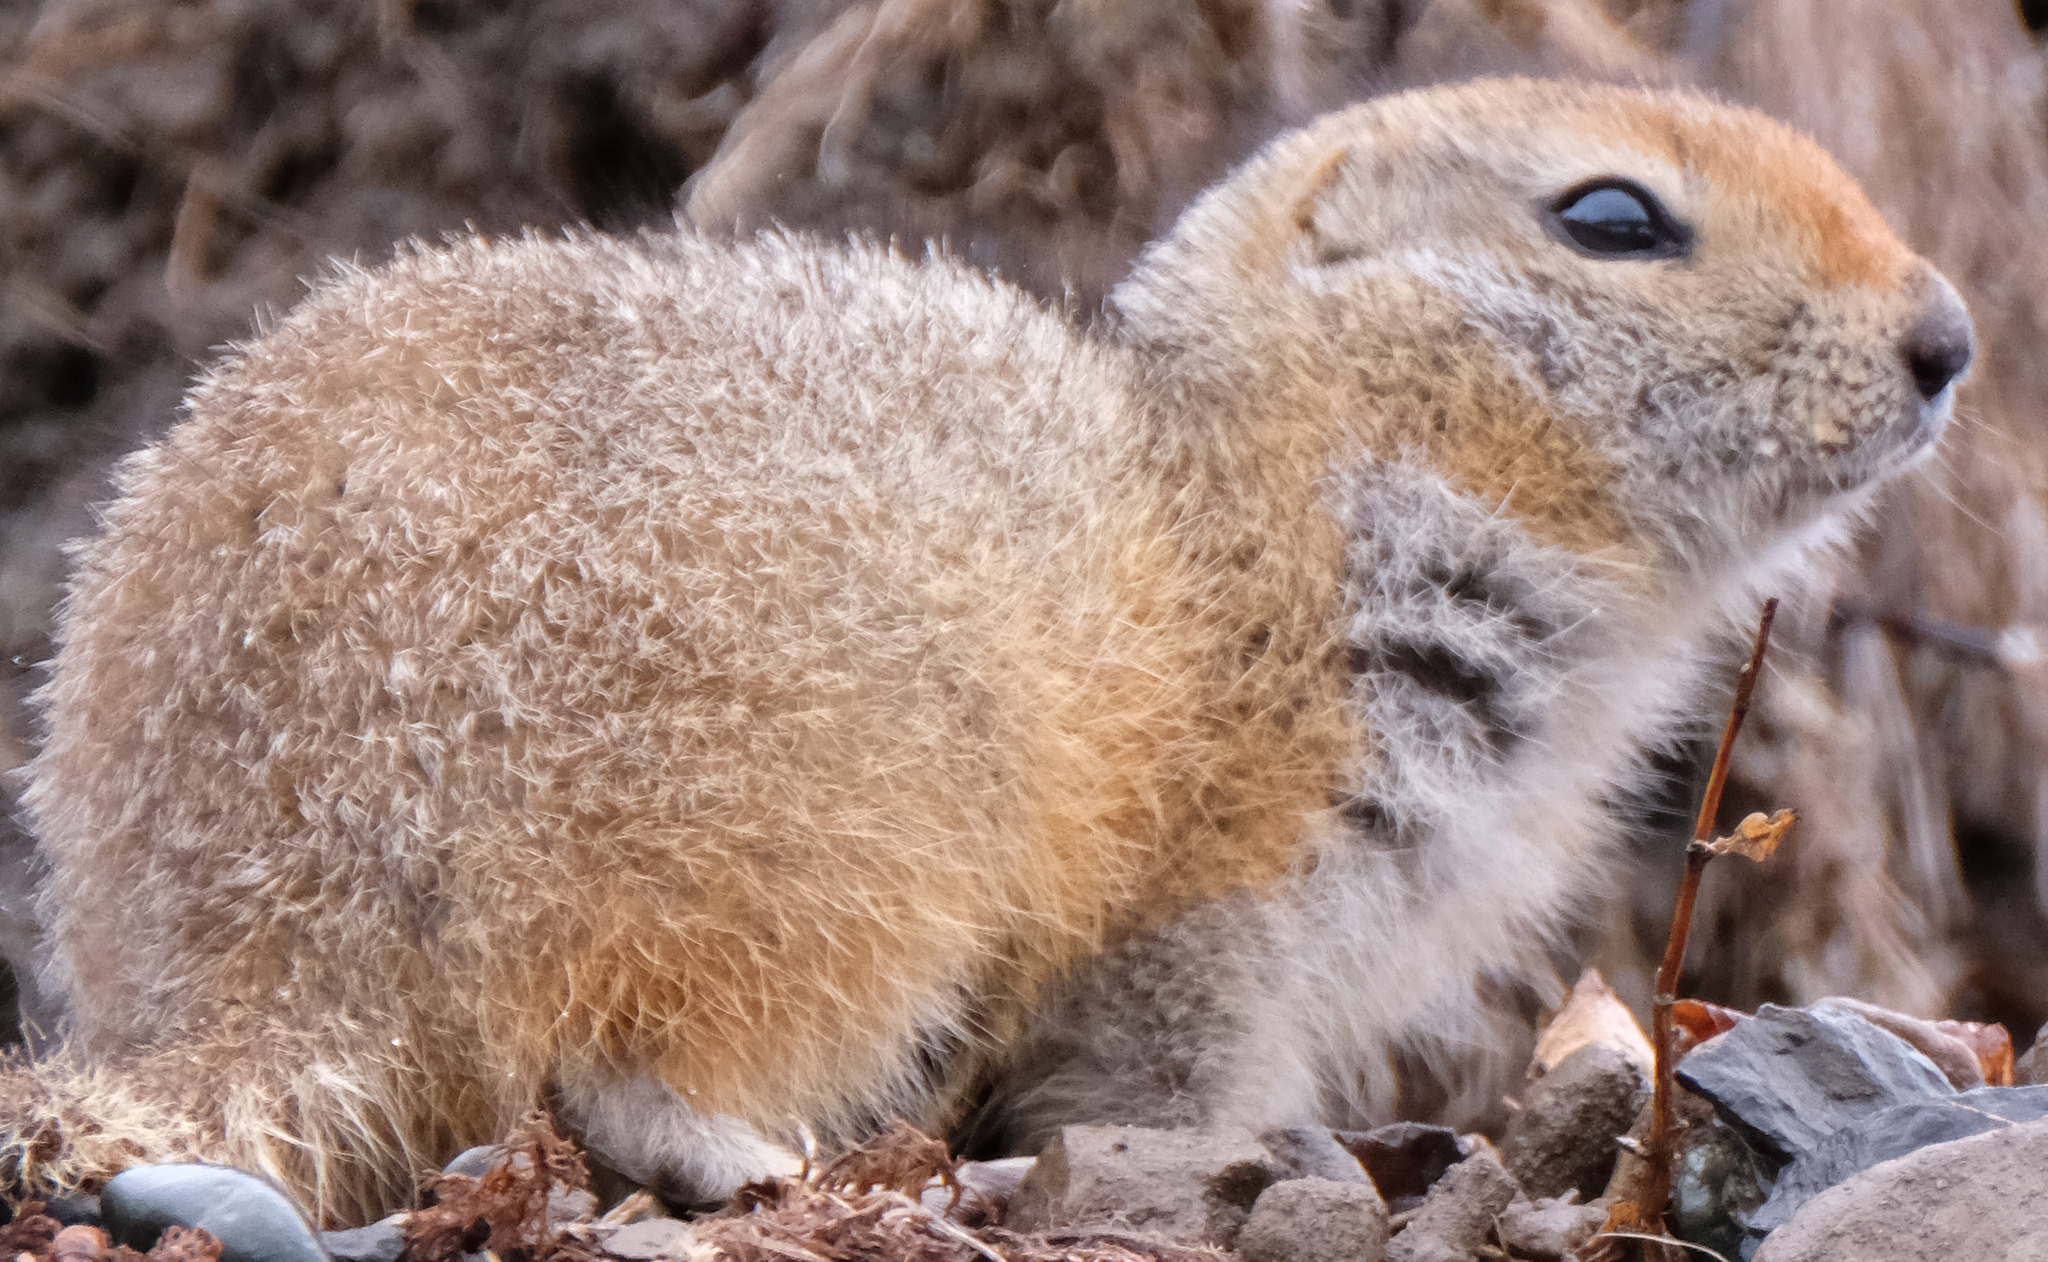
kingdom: Animalia
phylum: Chordata
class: Mammalia
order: Rodentia
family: Sciuridae
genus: Urocitellus
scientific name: Urocitellus parryii
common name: Arctic ground squirrel
